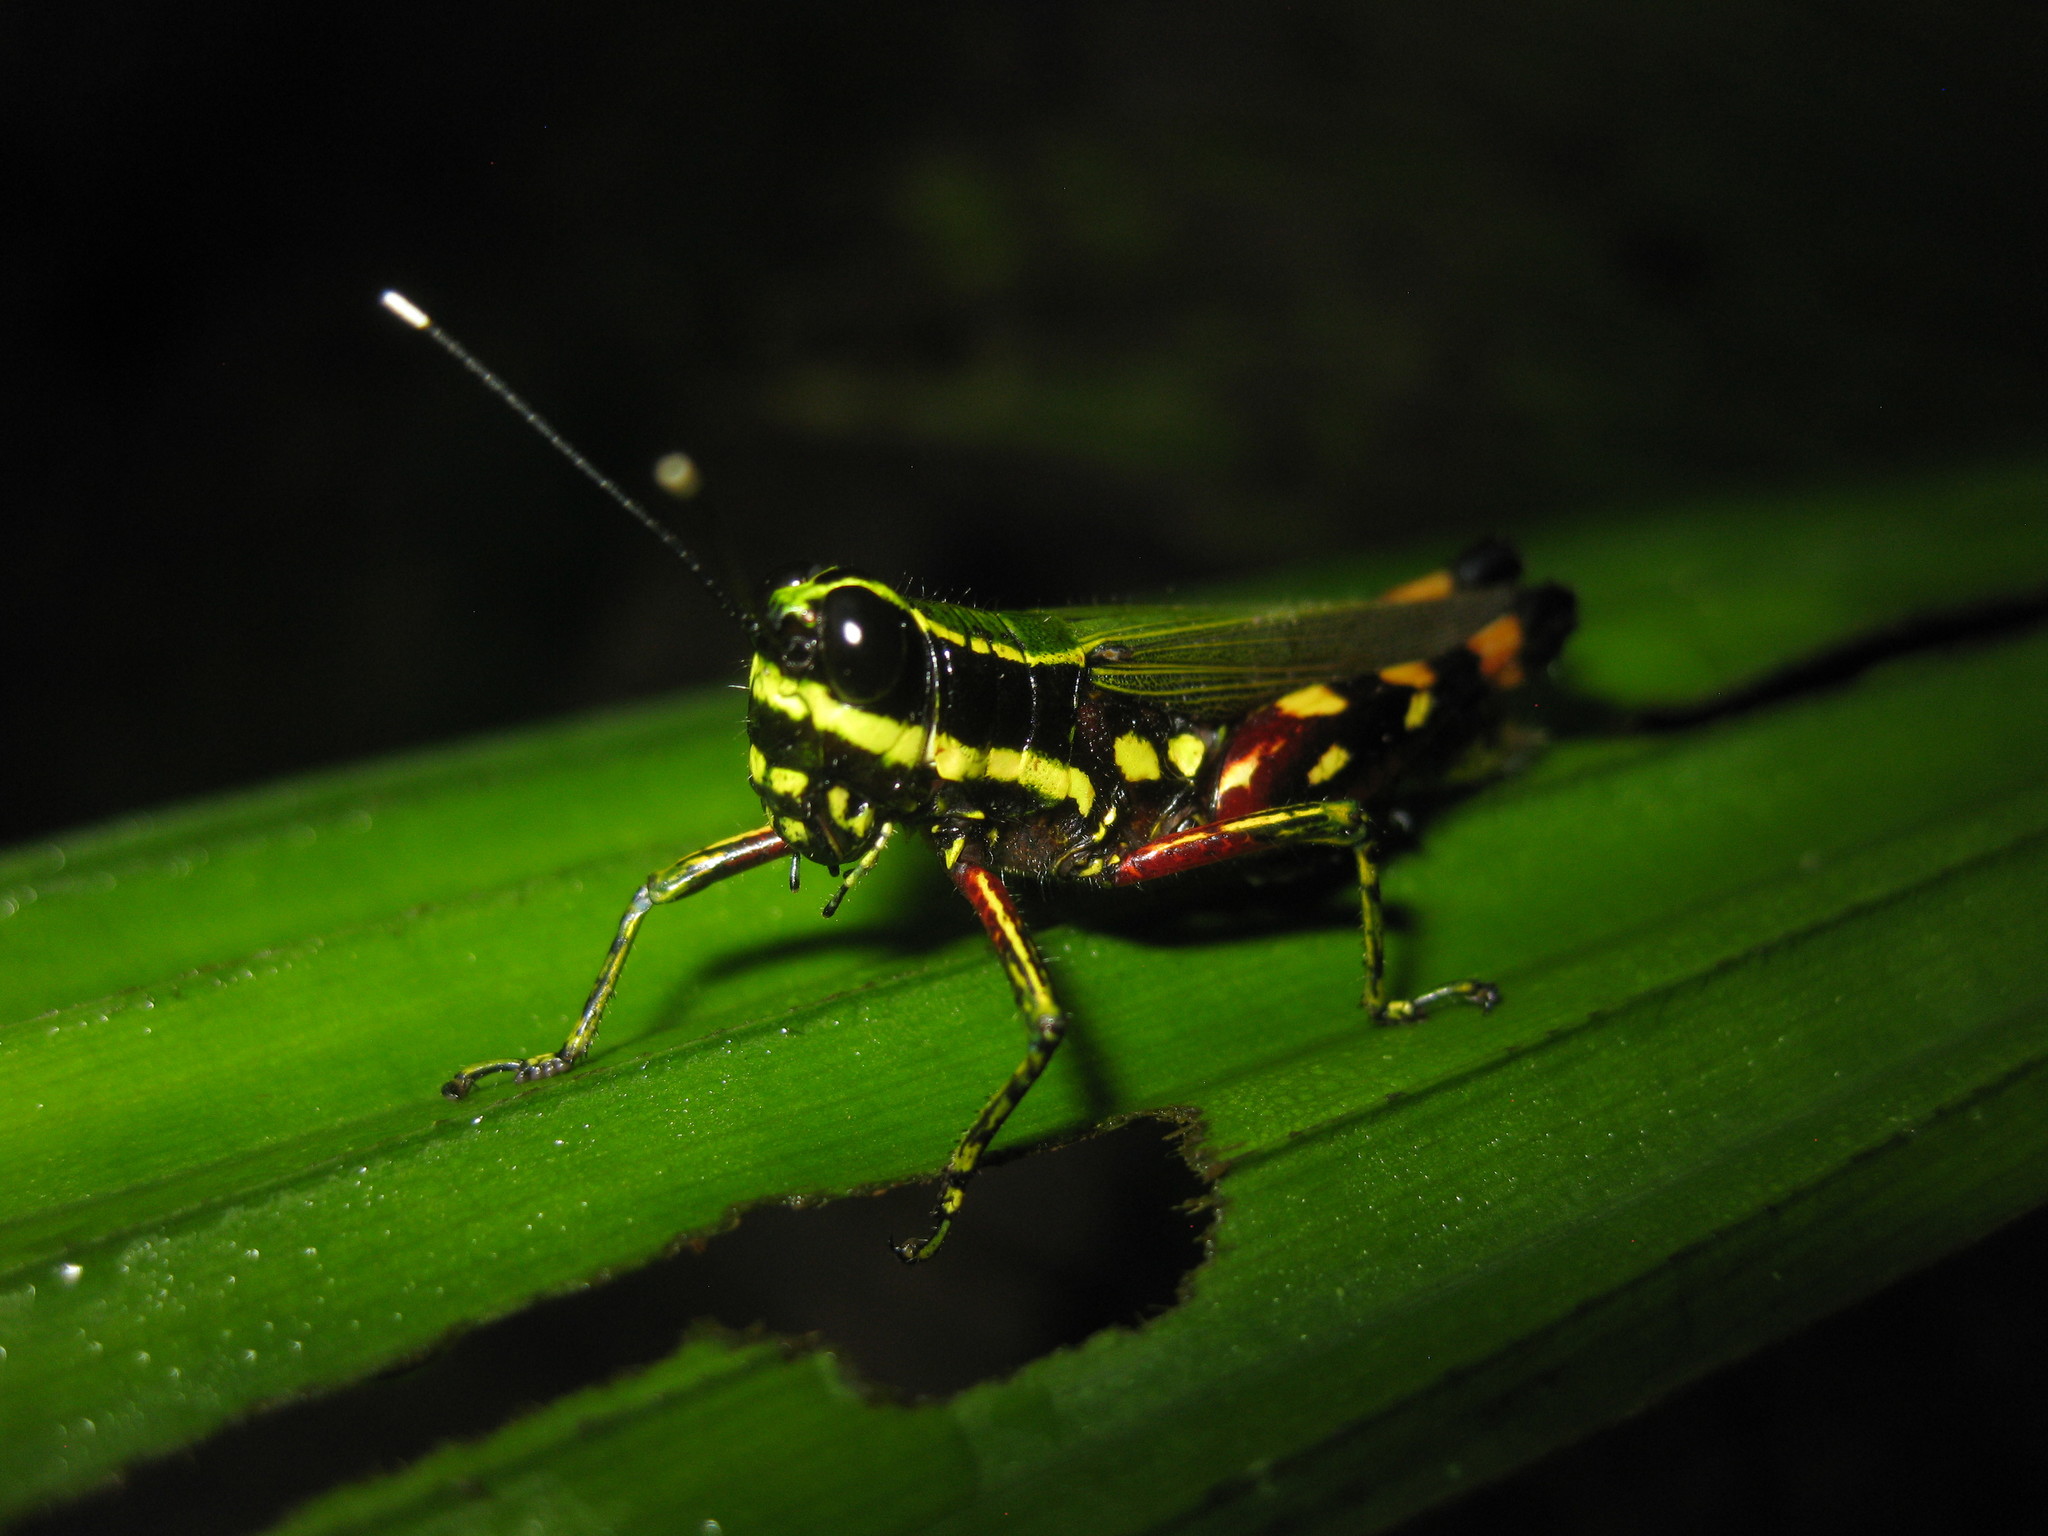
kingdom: Animalia
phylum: Arthropoda
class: Insecta
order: Orthoptera
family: Acrididae
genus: Tetrataenia
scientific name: Tetrataenia surinama
